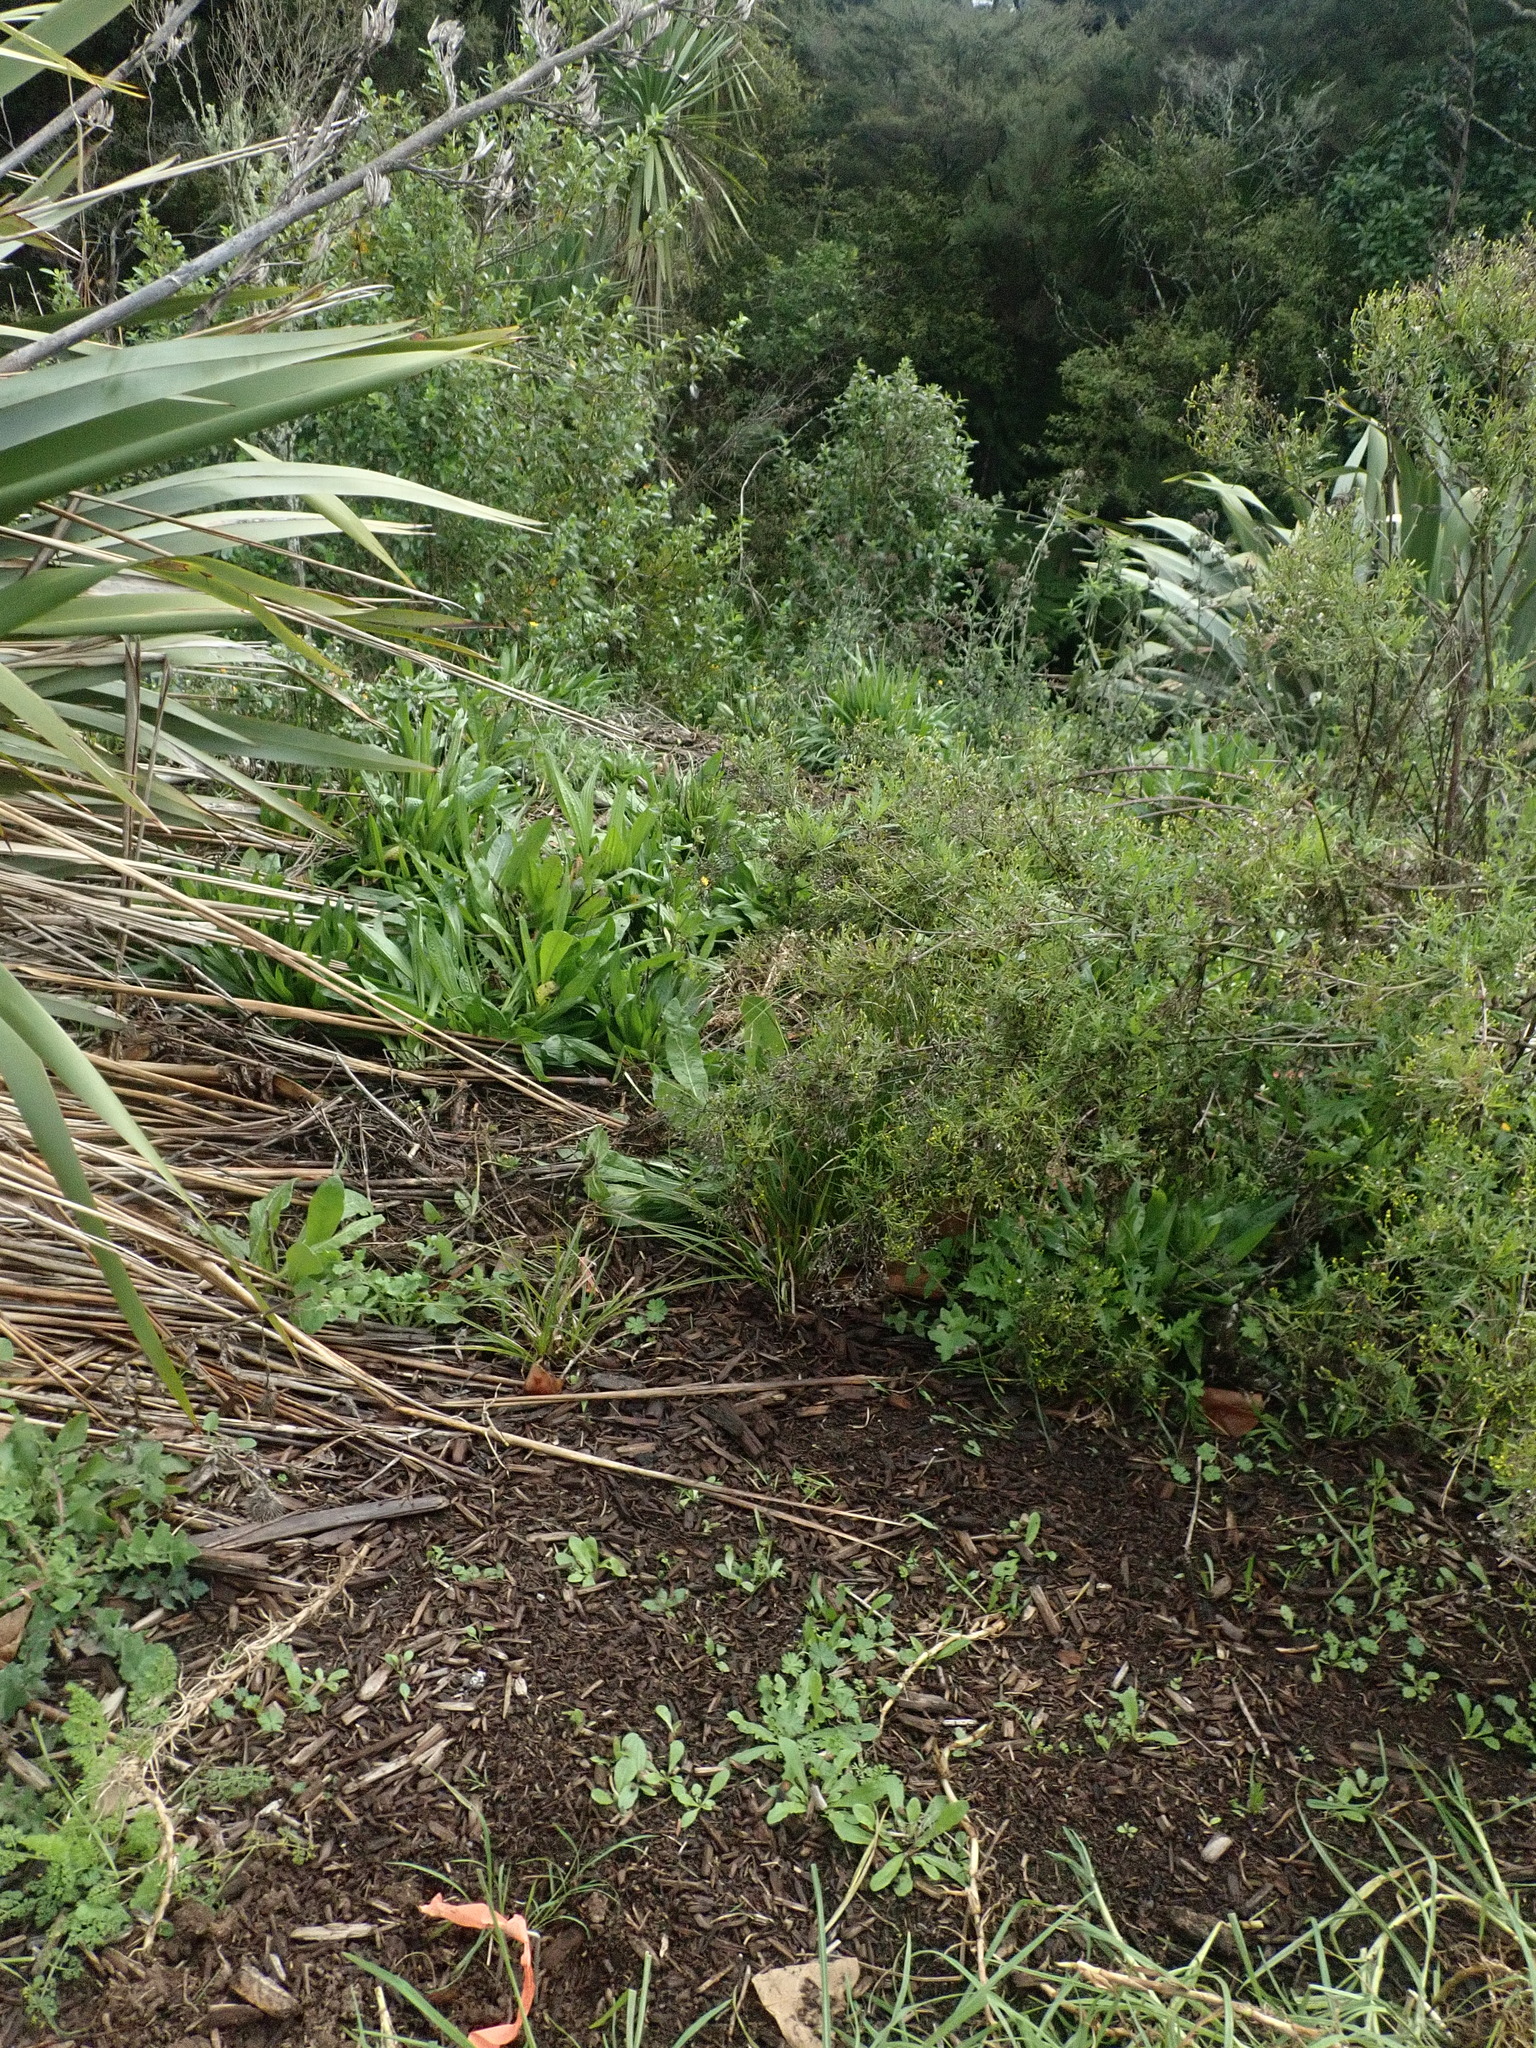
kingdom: Plantae
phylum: Tracheophyta
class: Magnoliopsida
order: Lamiales
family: Plantaginaceae
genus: Plantago
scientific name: Plantago lanceolata
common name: Ribwort plantain
